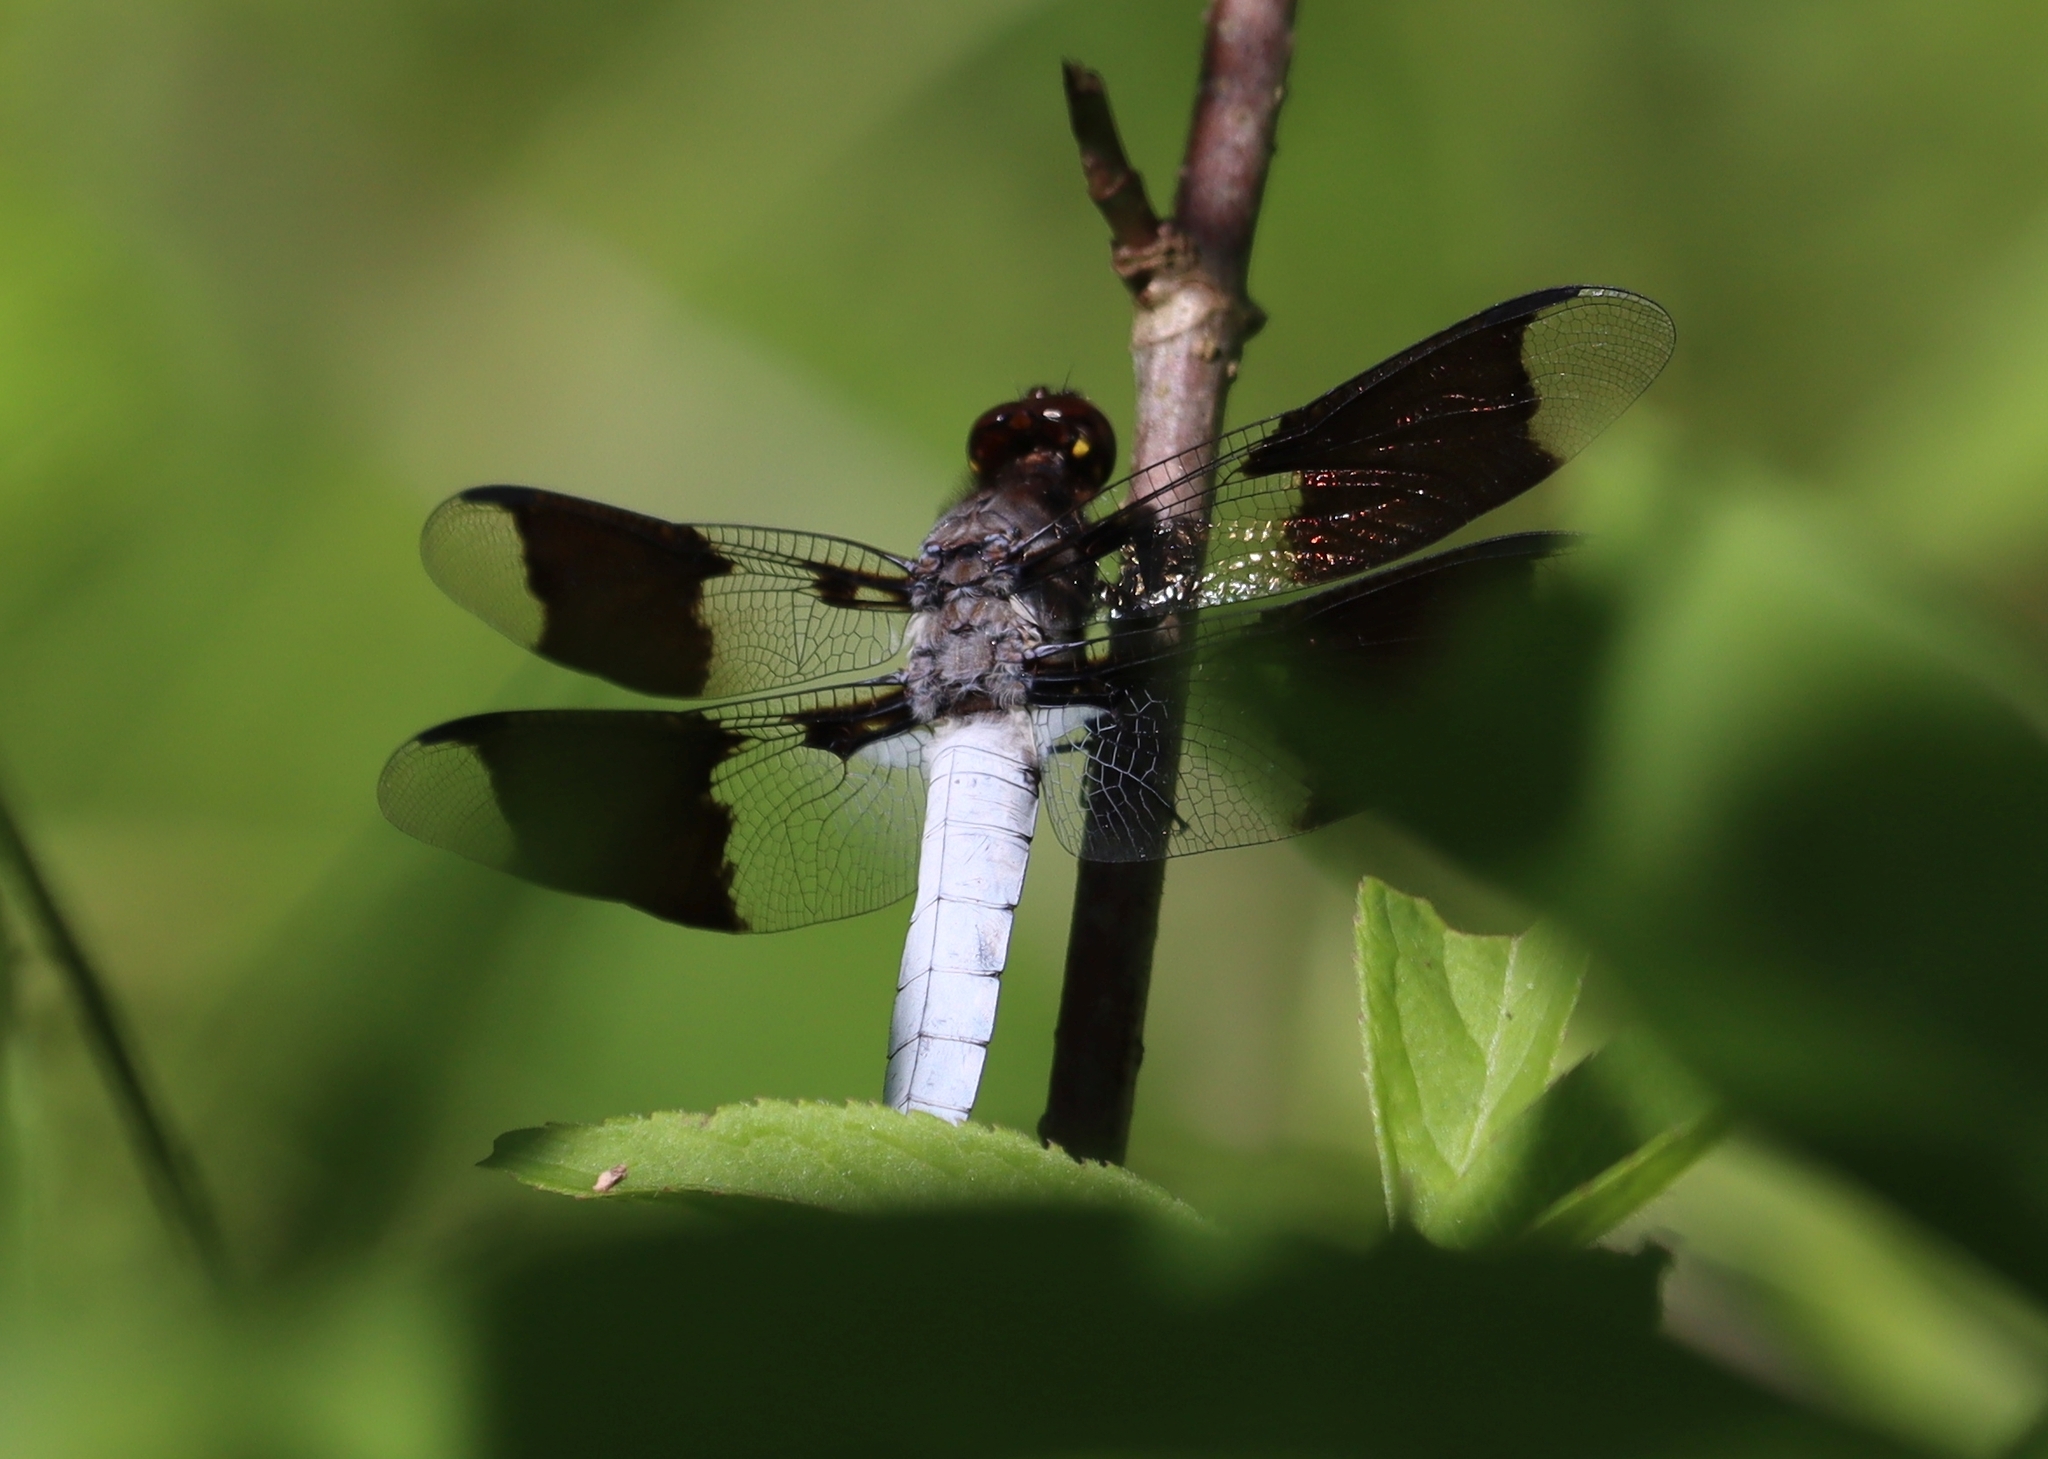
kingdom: Animalia
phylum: Arthropoda
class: Insecta
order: Odonata
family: Libellulidae
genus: Plathemis
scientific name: Plathemis lydia
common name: Common whitetail
